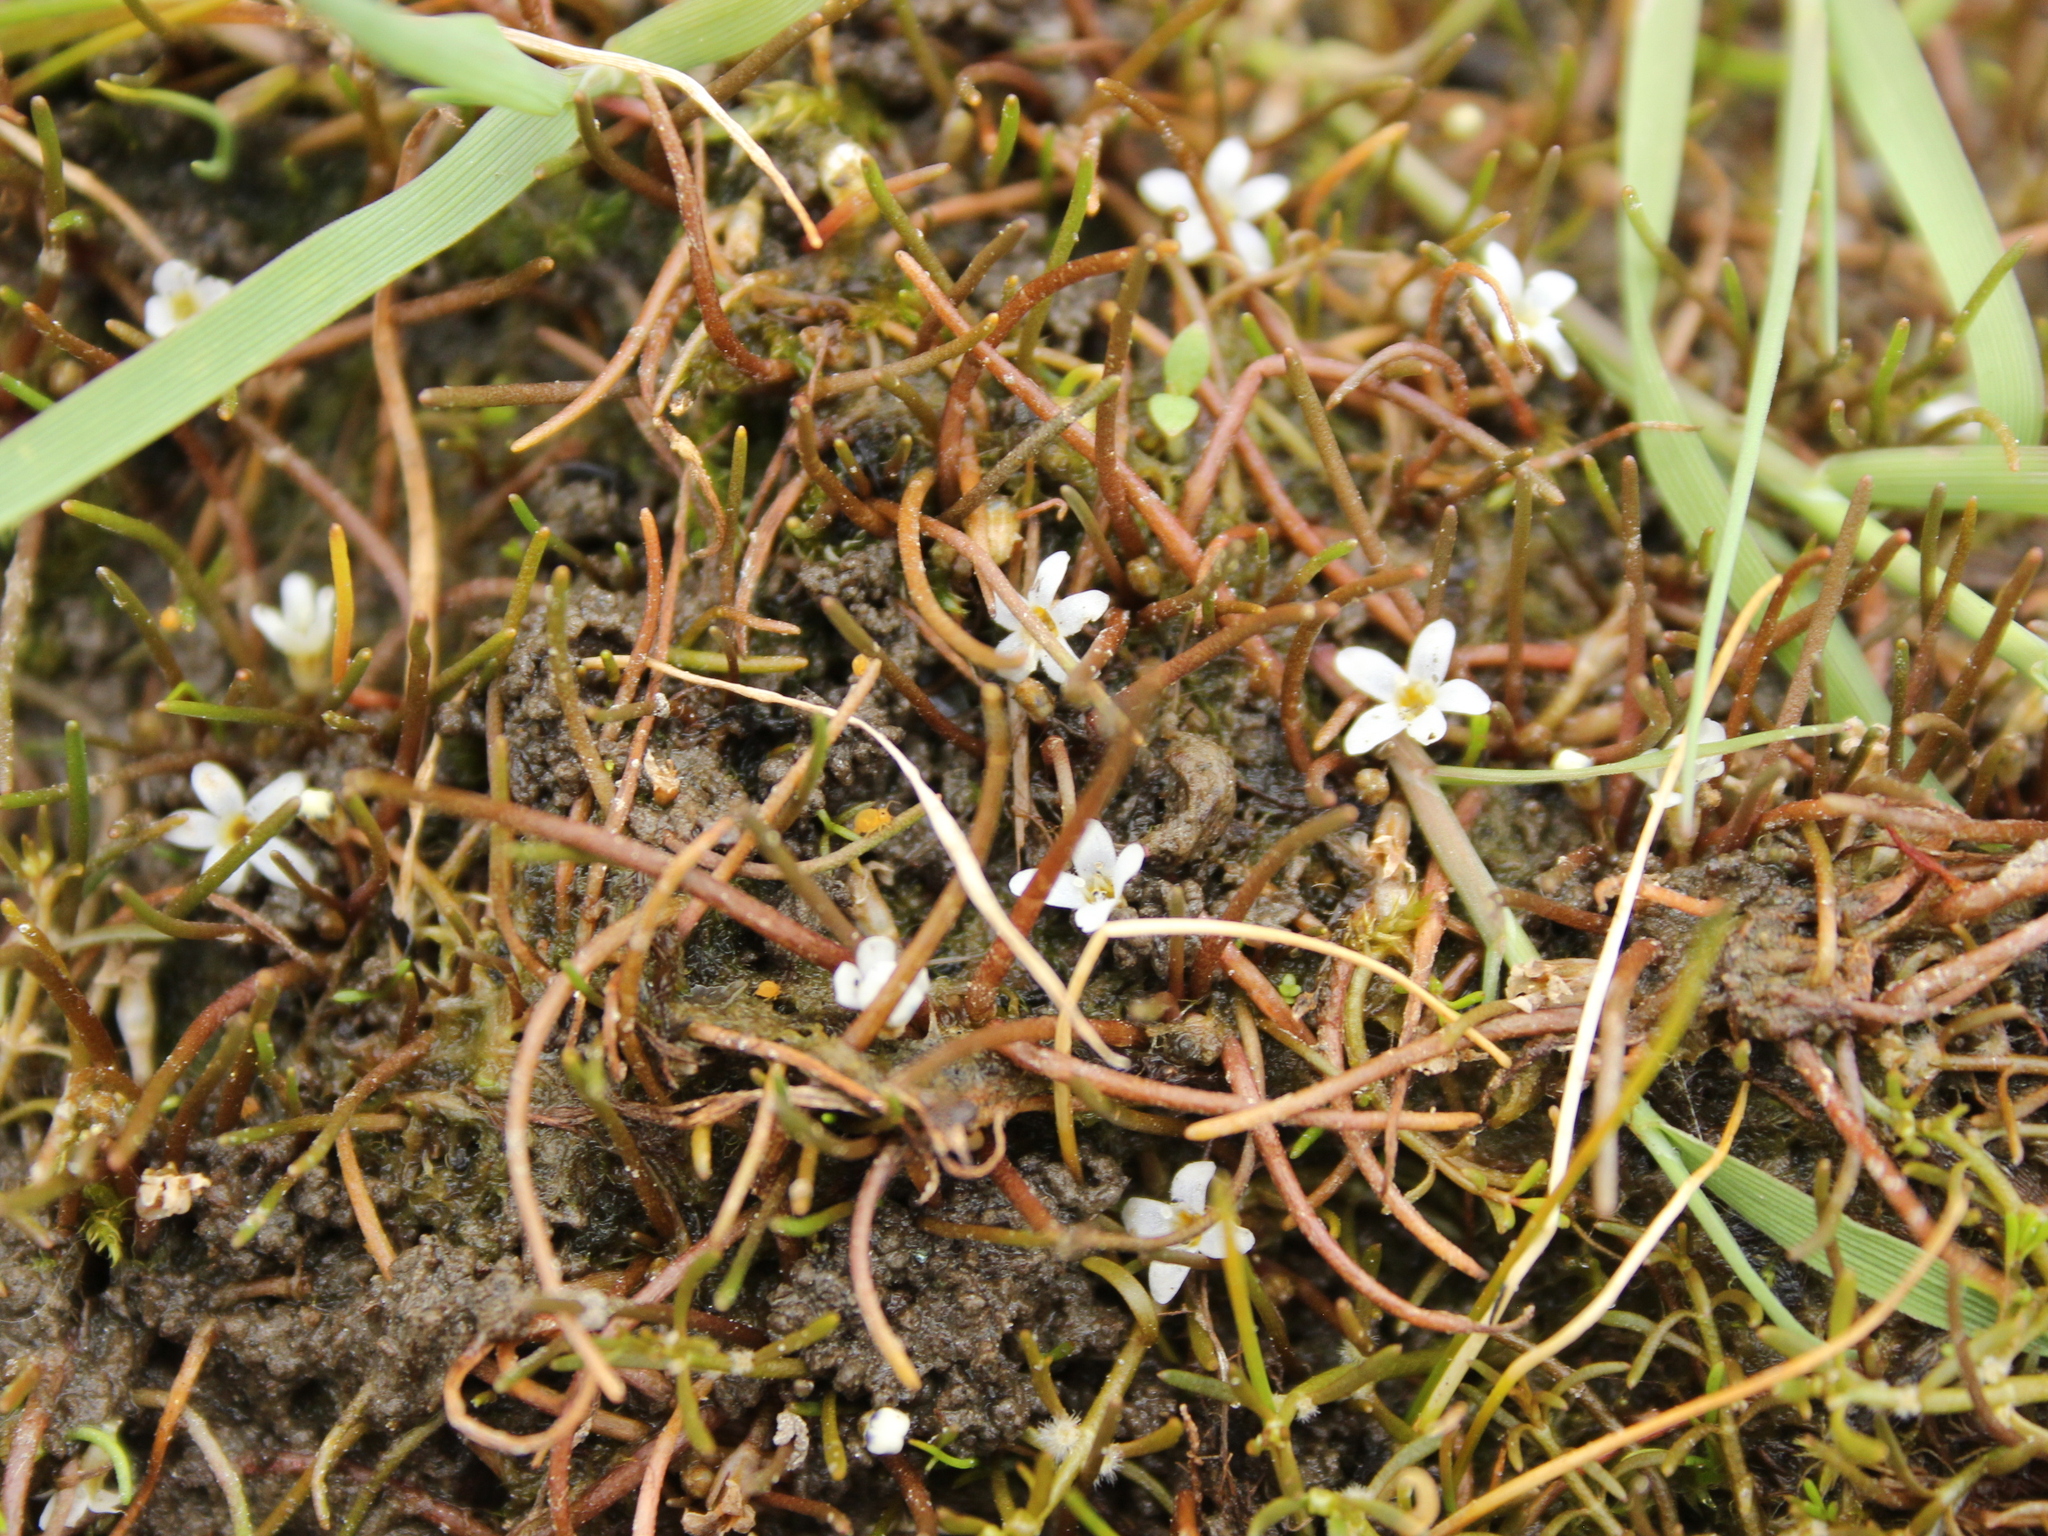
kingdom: Plantae
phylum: Tracheophyta
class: Magnoliopsida
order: Lamiales
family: Scrophulariaceae
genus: Limosella
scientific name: Limosella australis
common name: Welsh mudwort
